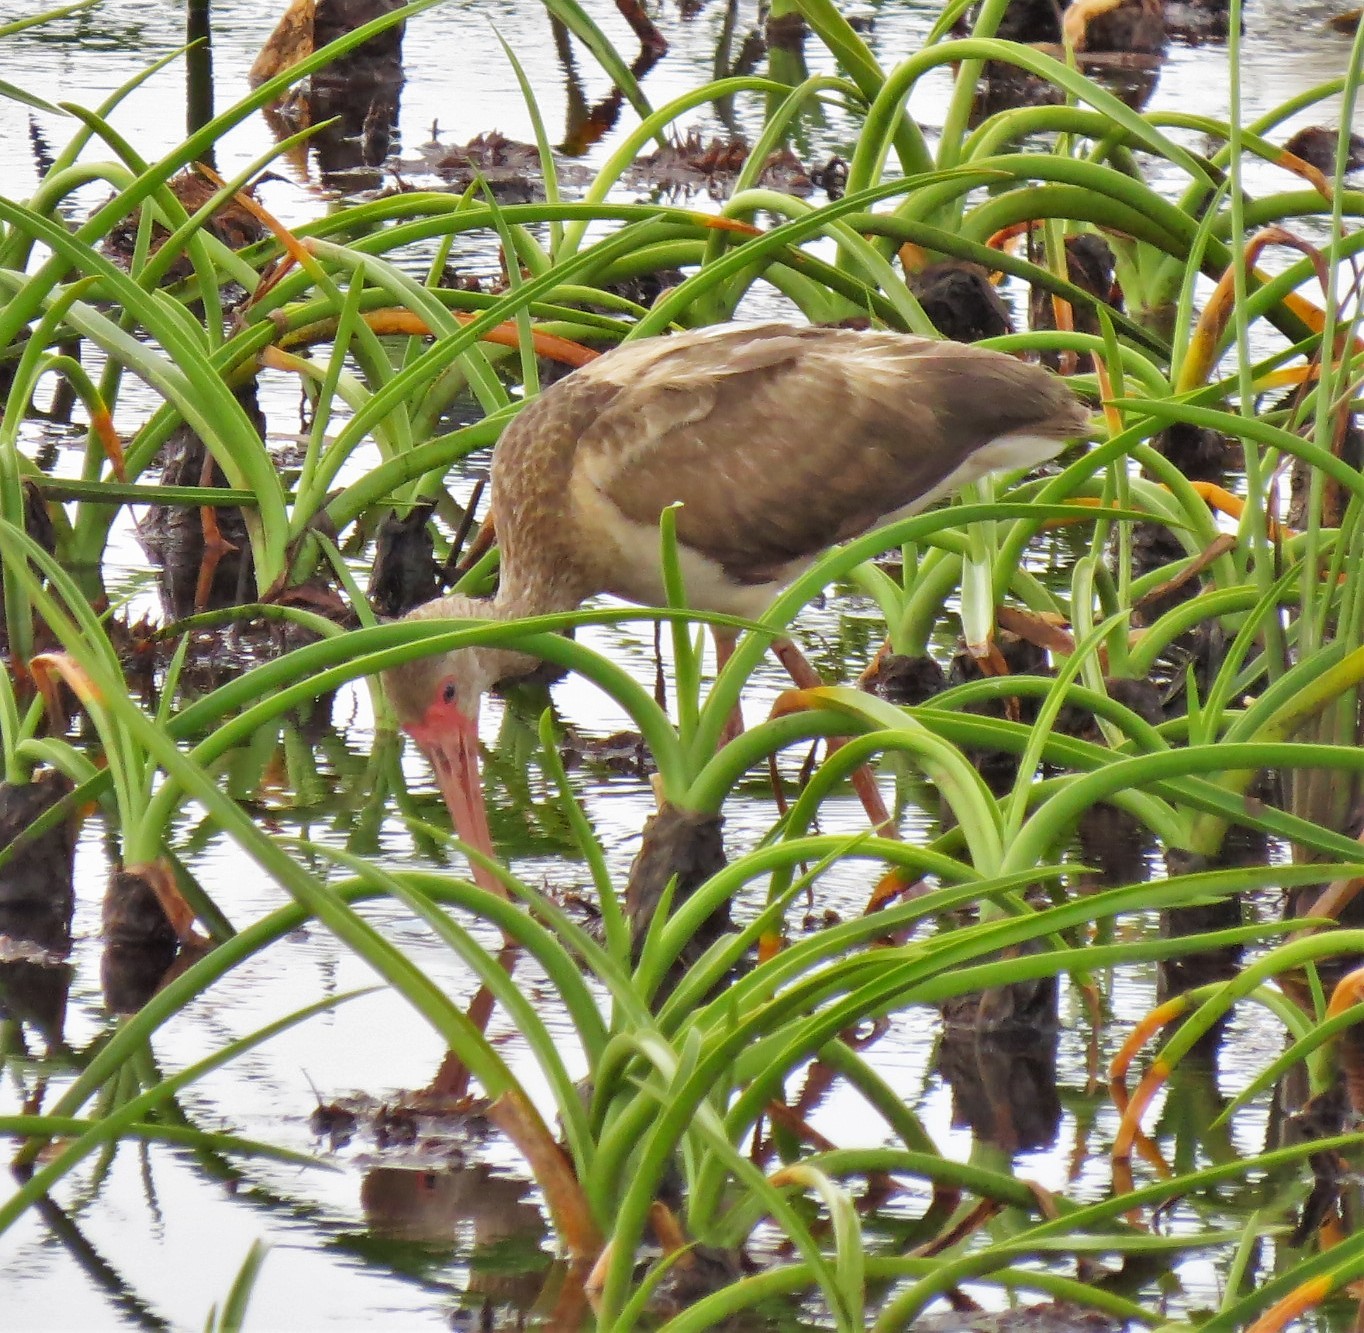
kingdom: Animalia
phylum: Chordata
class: Aves
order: Pelecaniformes
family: Threskiornithidae
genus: Eudocimus
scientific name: Eudocimus albus
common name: White ibis
